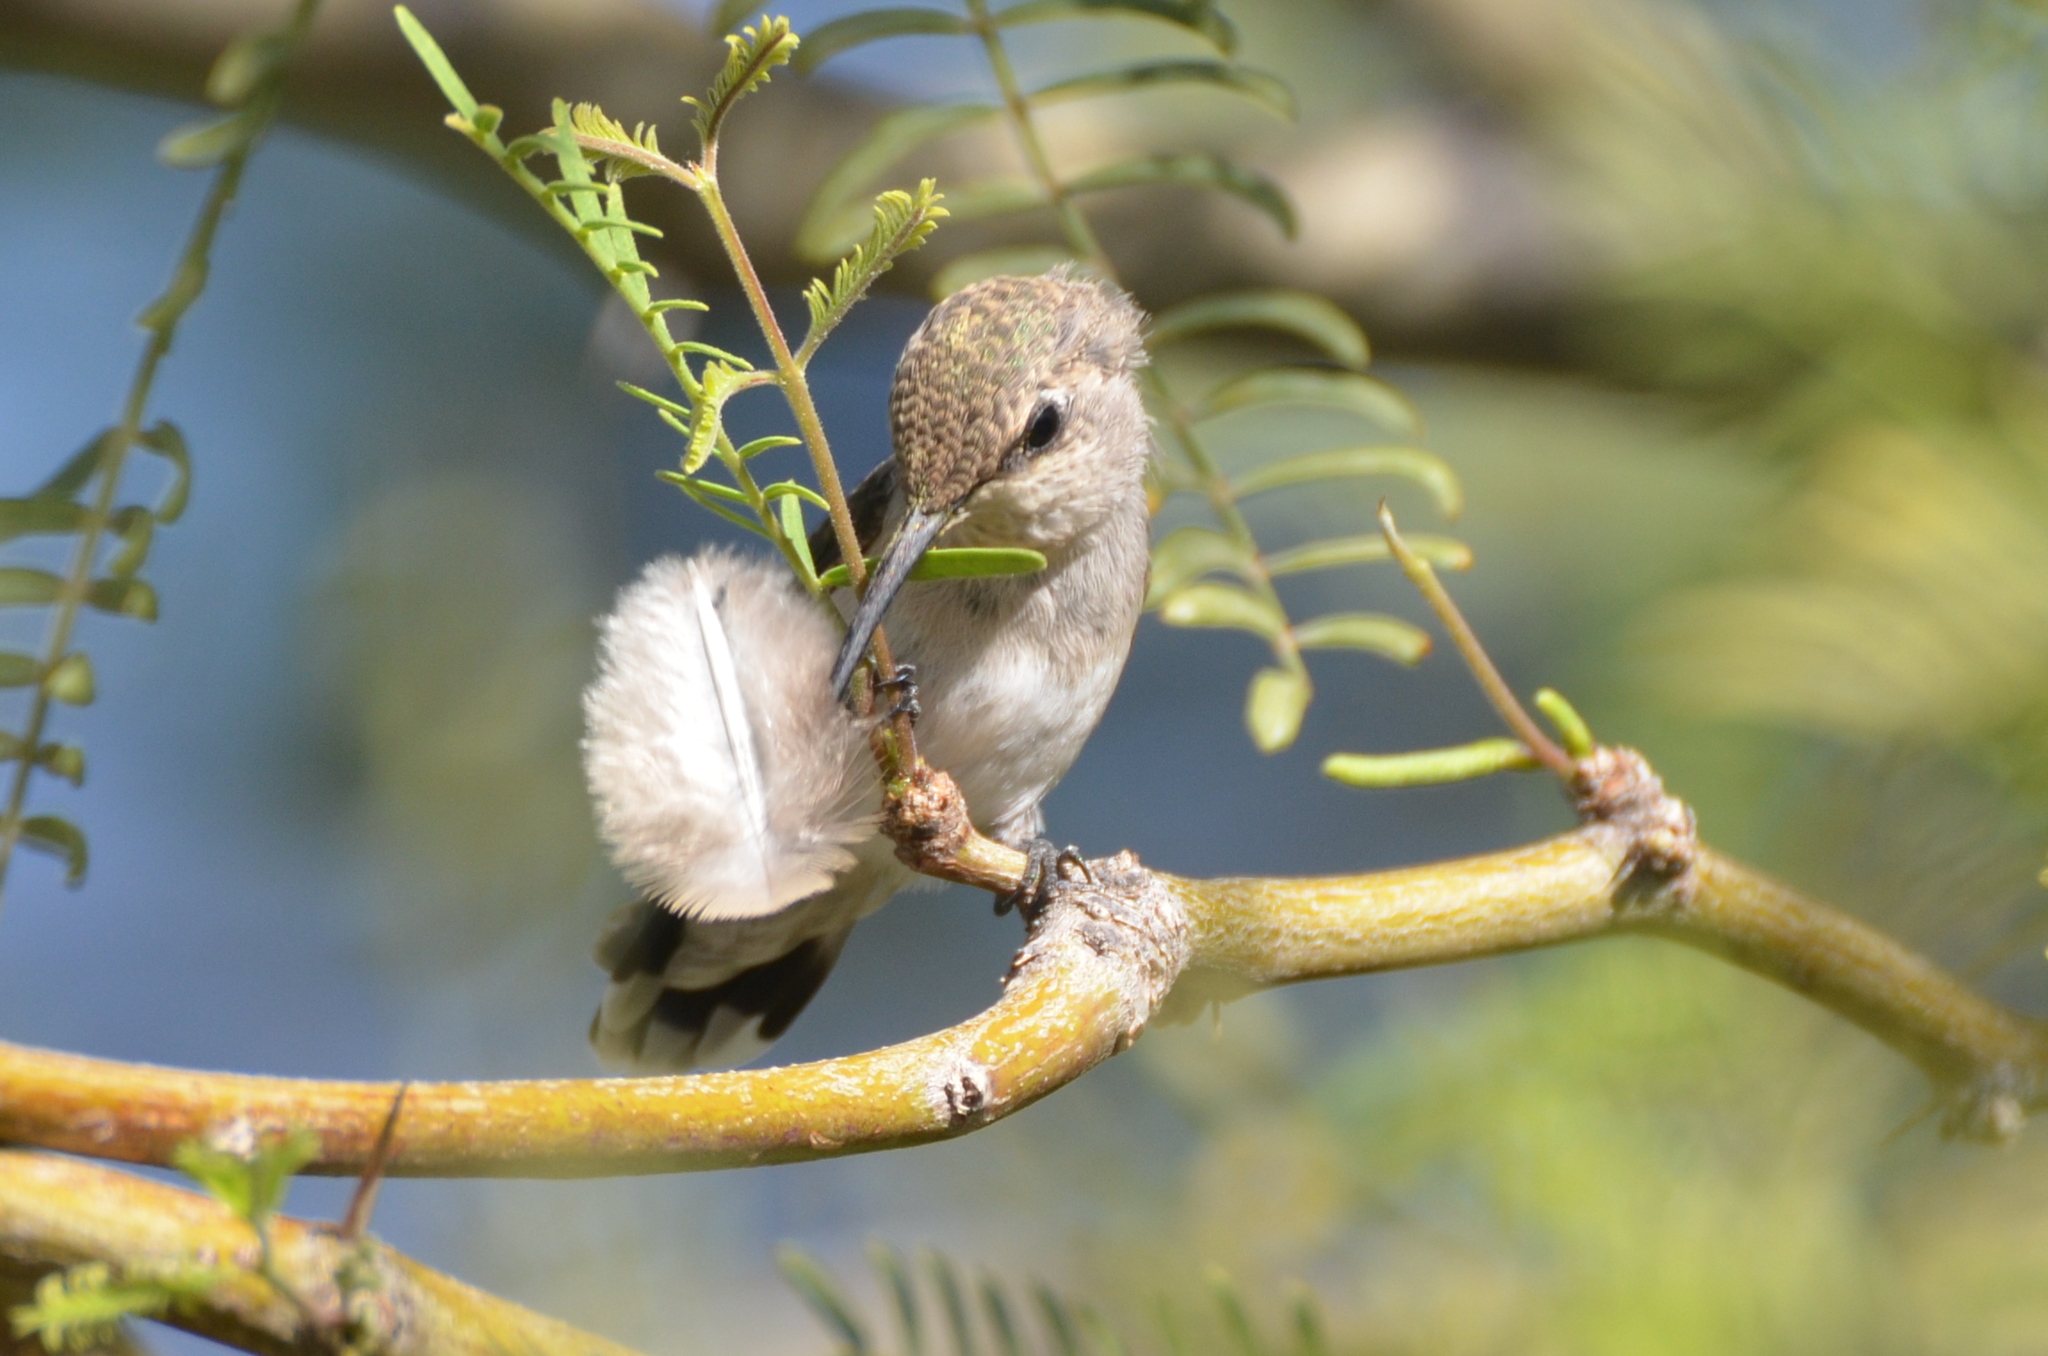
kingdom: Animalia
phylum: Chordata
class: Aves
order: Apodiformes
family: Trochilidae
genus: Calypte
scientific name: Calypte costae
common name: Costa's hummingbird
